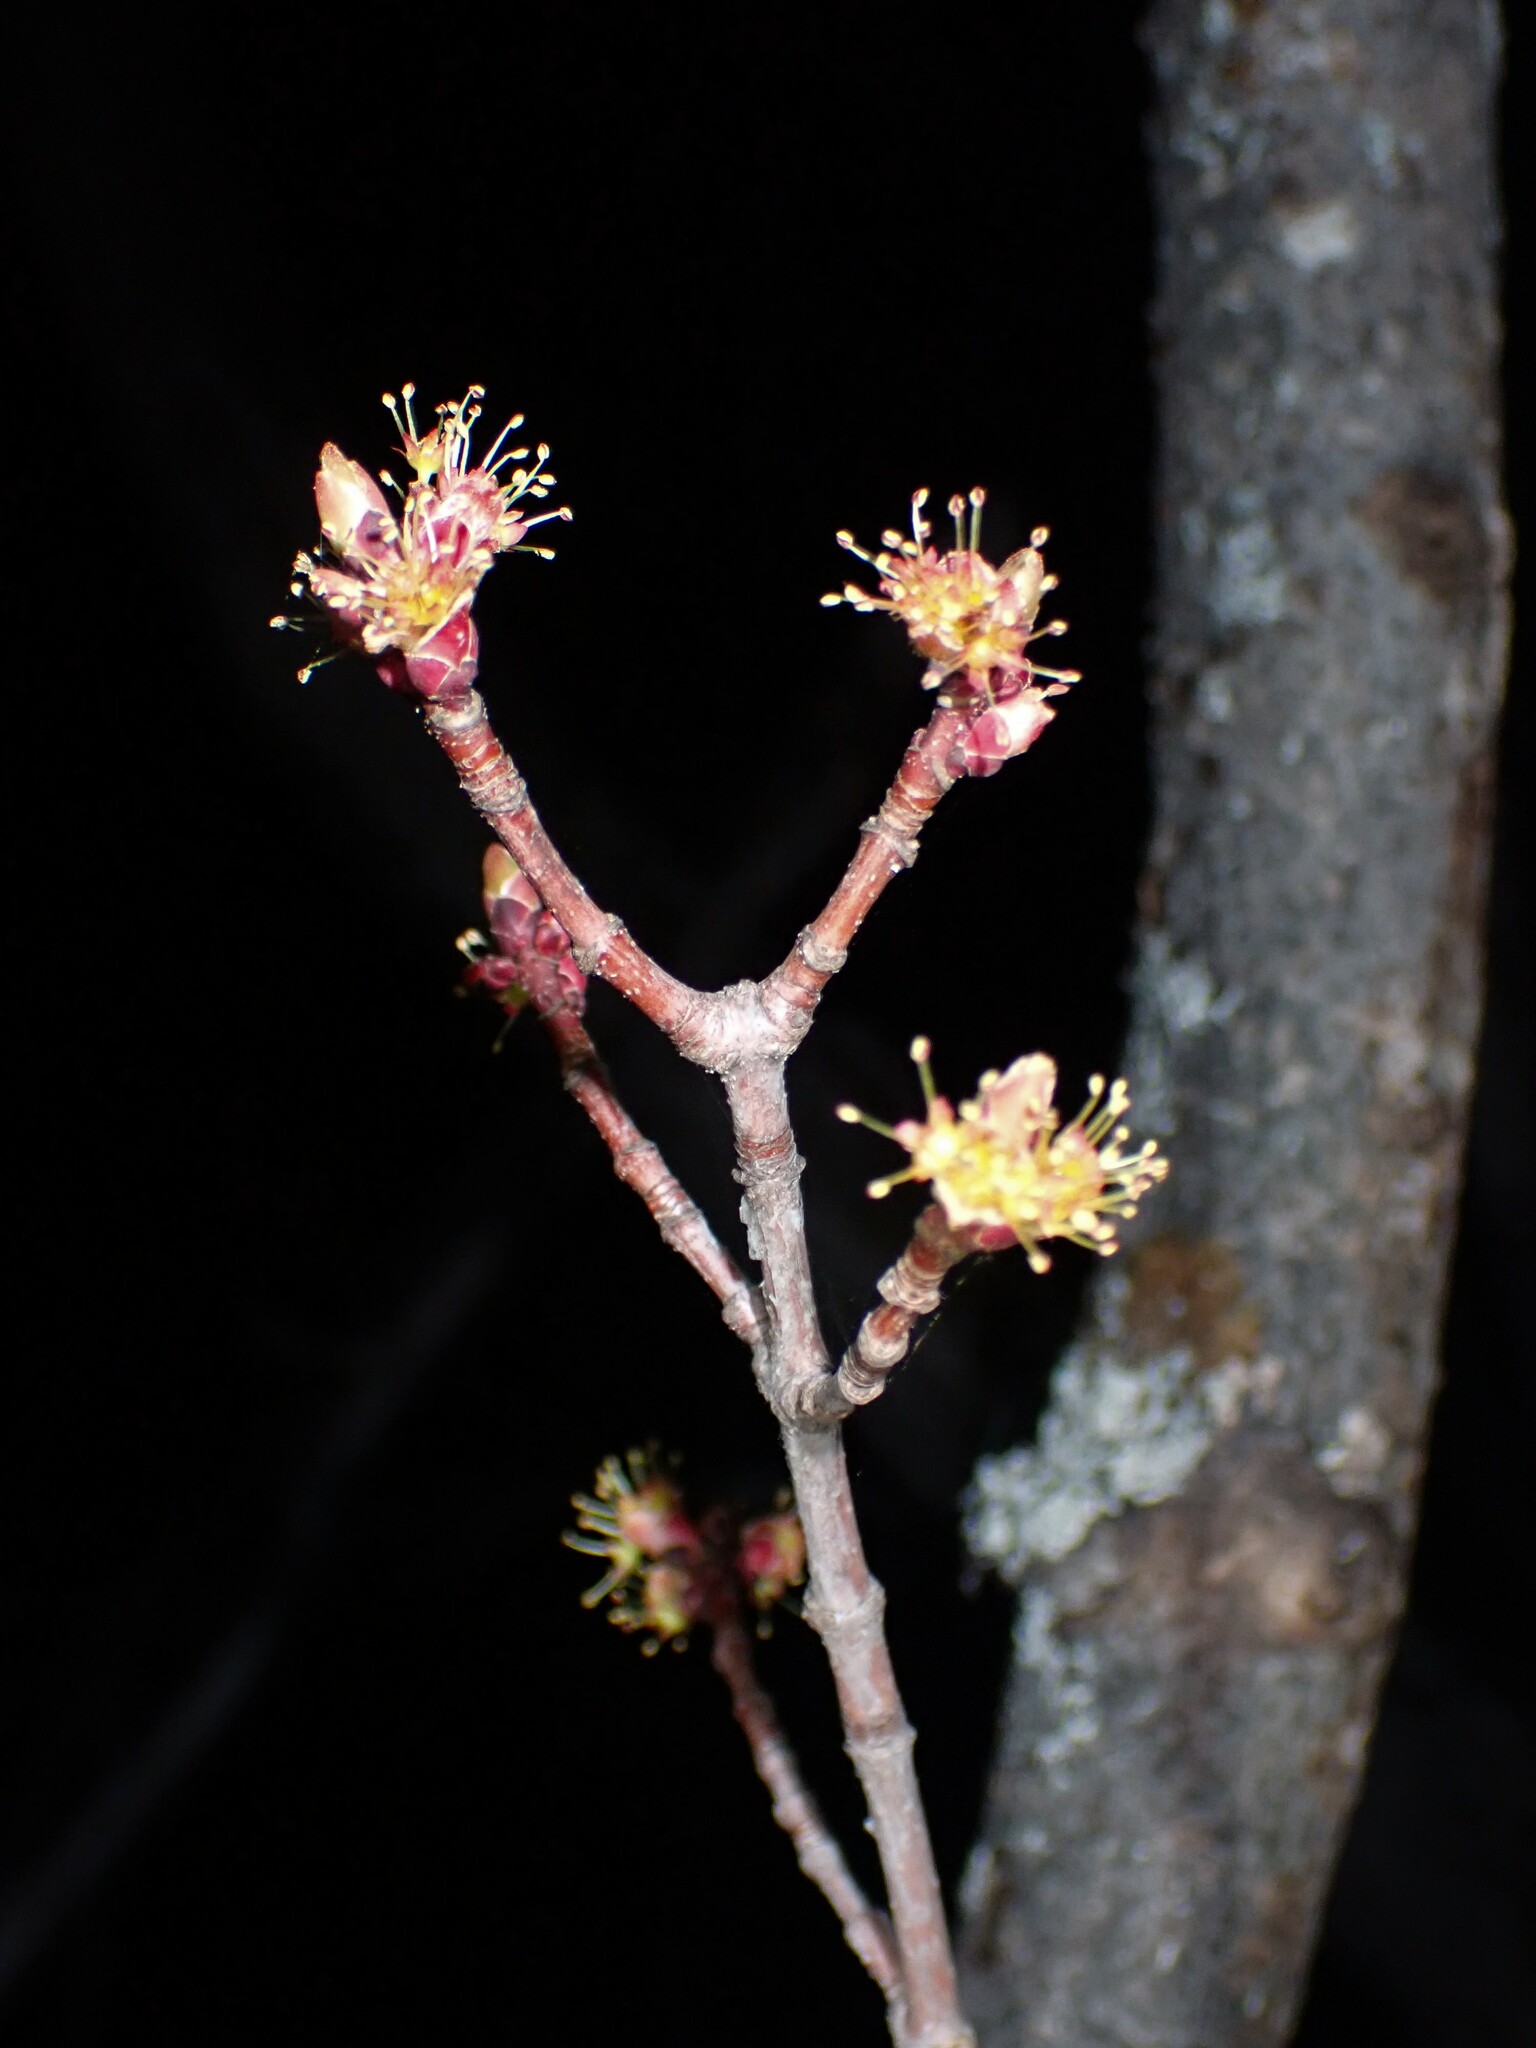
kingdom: Plantae
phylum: Tracheophyta
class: Magnoliopsida
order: Sapindales
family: Sapindaceae
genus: Acer
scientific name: Acer rubrum
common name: Red maple
